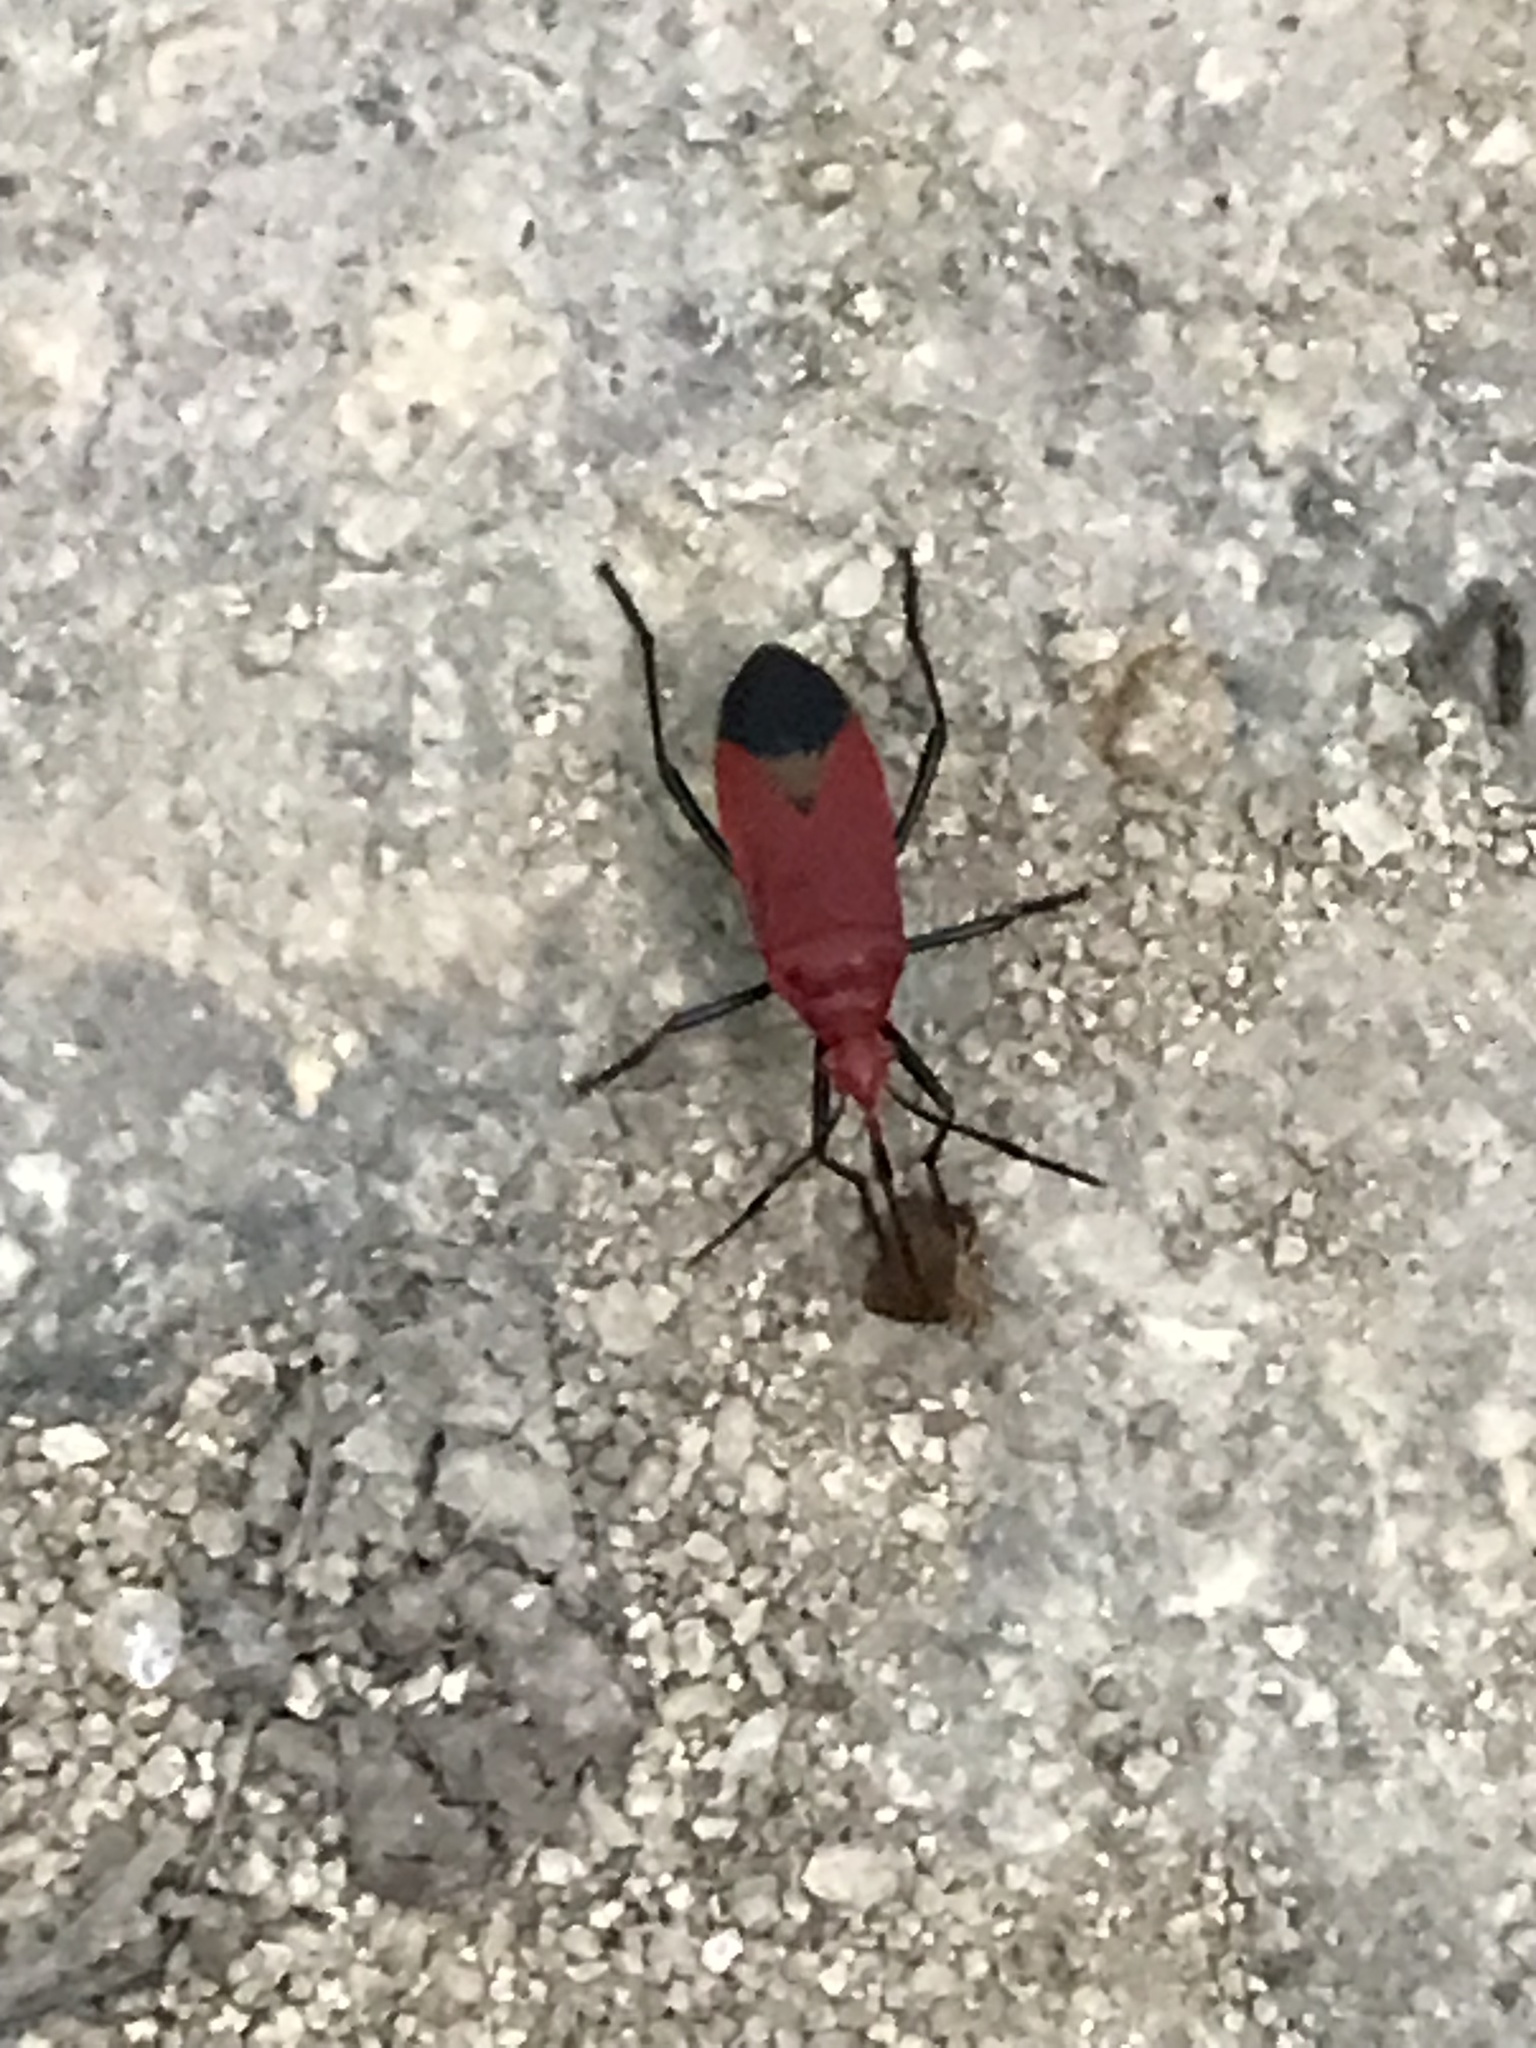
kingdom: Animalia
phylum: Arthropoda
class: Insecta
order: Hemiptera
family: Pyrrhocoridae
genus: Dindymus
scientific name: Dindymus
